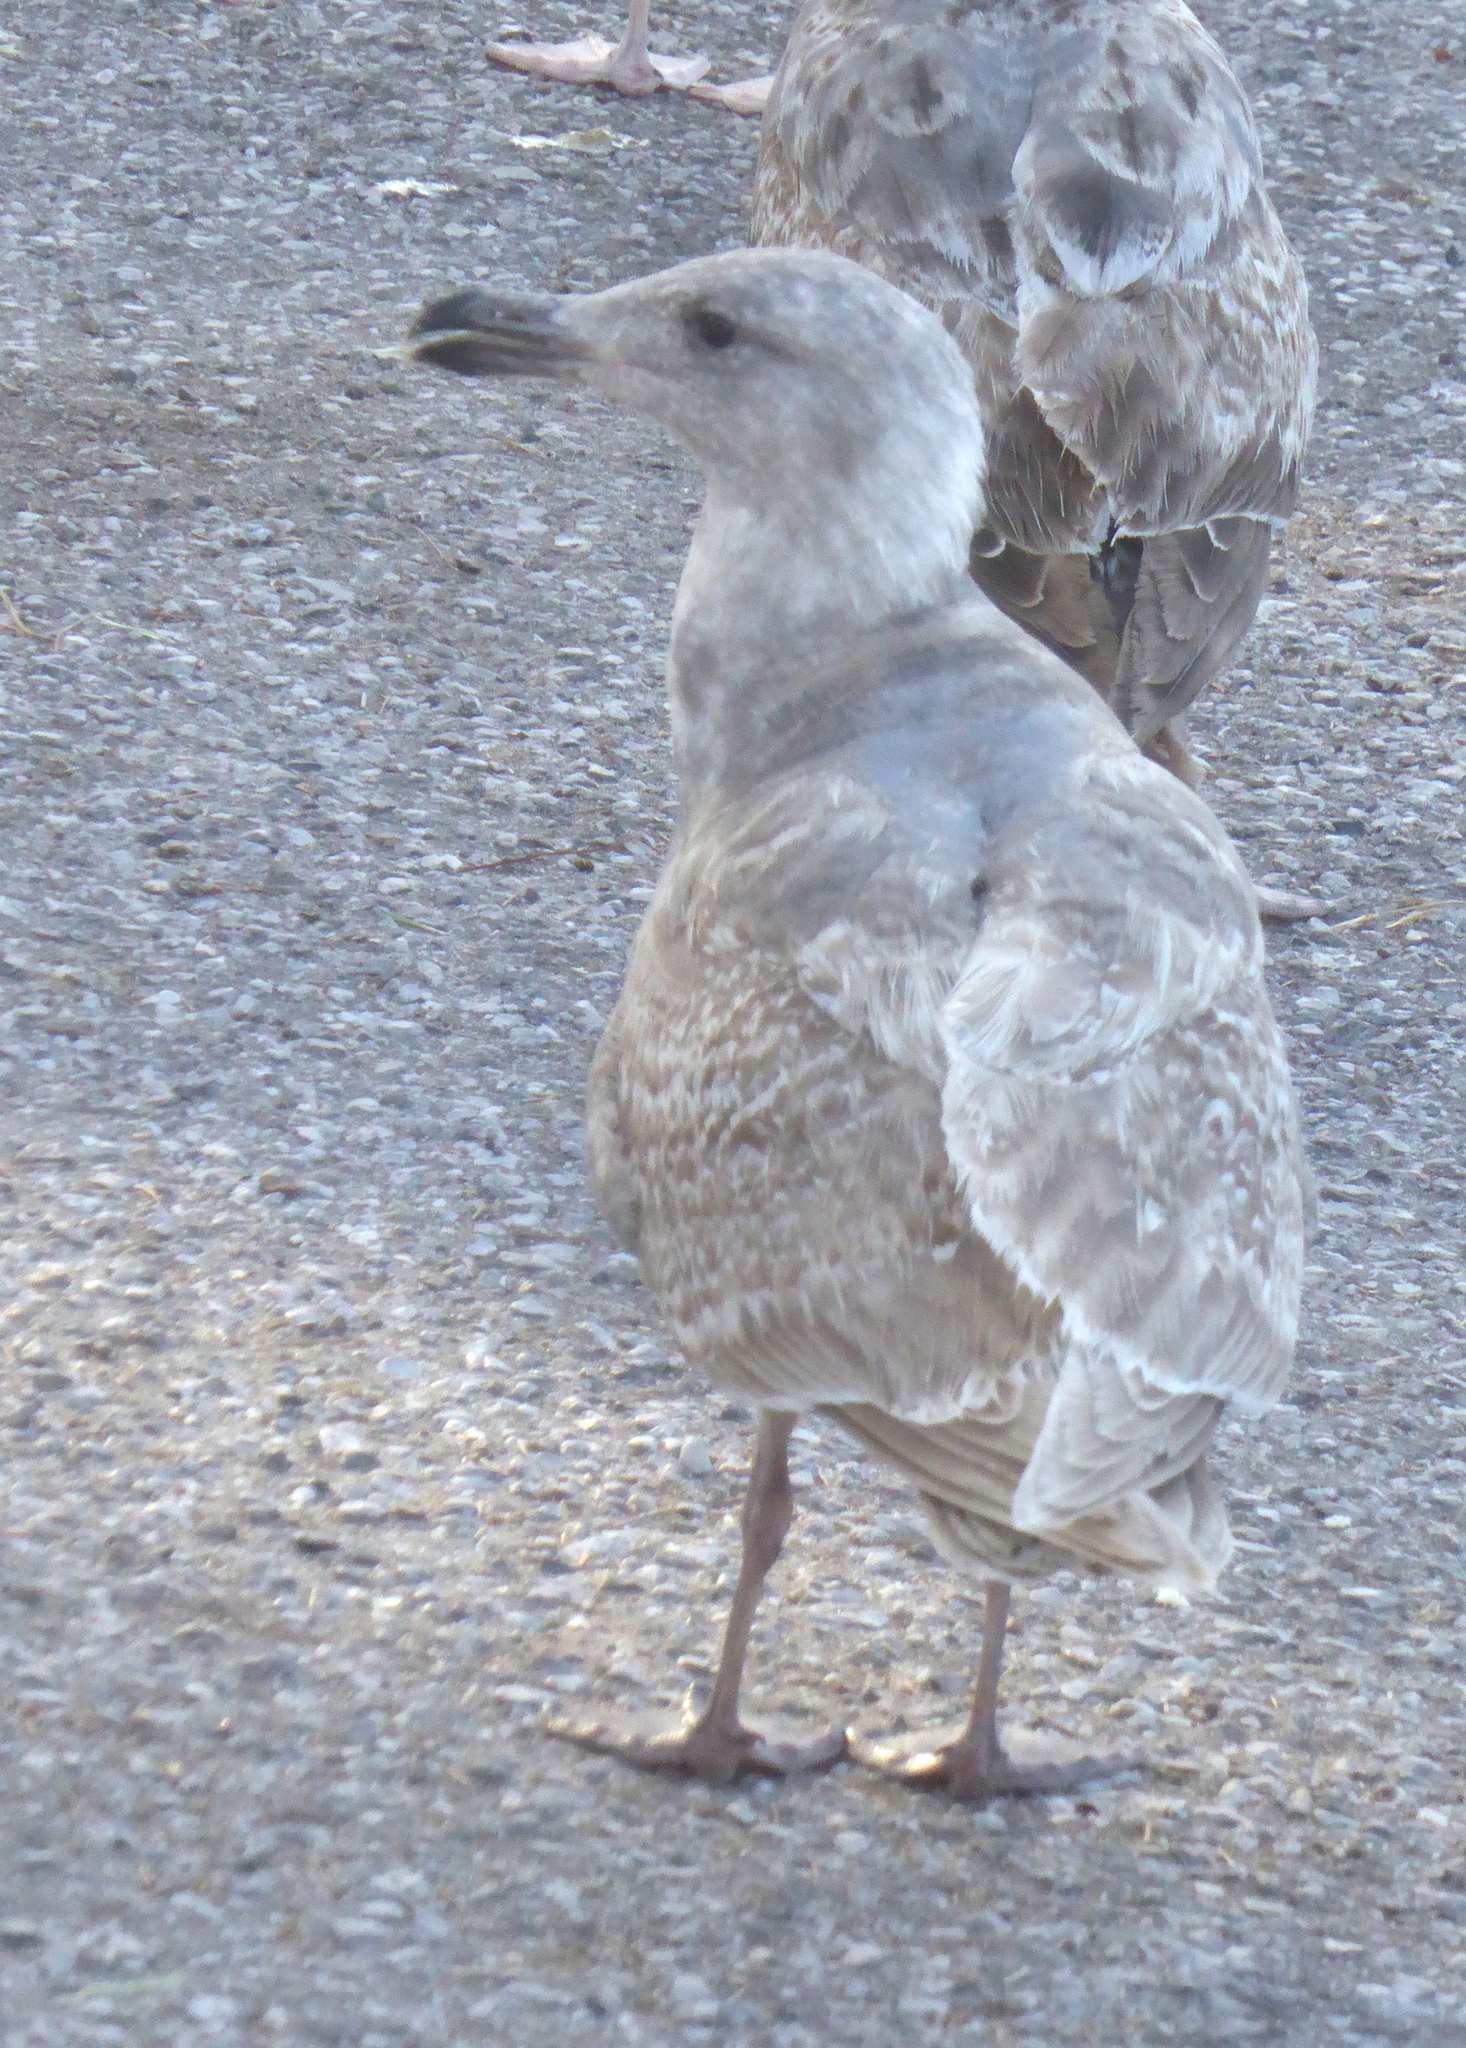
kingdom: Animalia
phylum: Chordata
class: Aves
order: Charadriiformes
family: Laridae
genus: Larus
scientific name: Larus glaucescens
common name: Glaucous-winged gull
